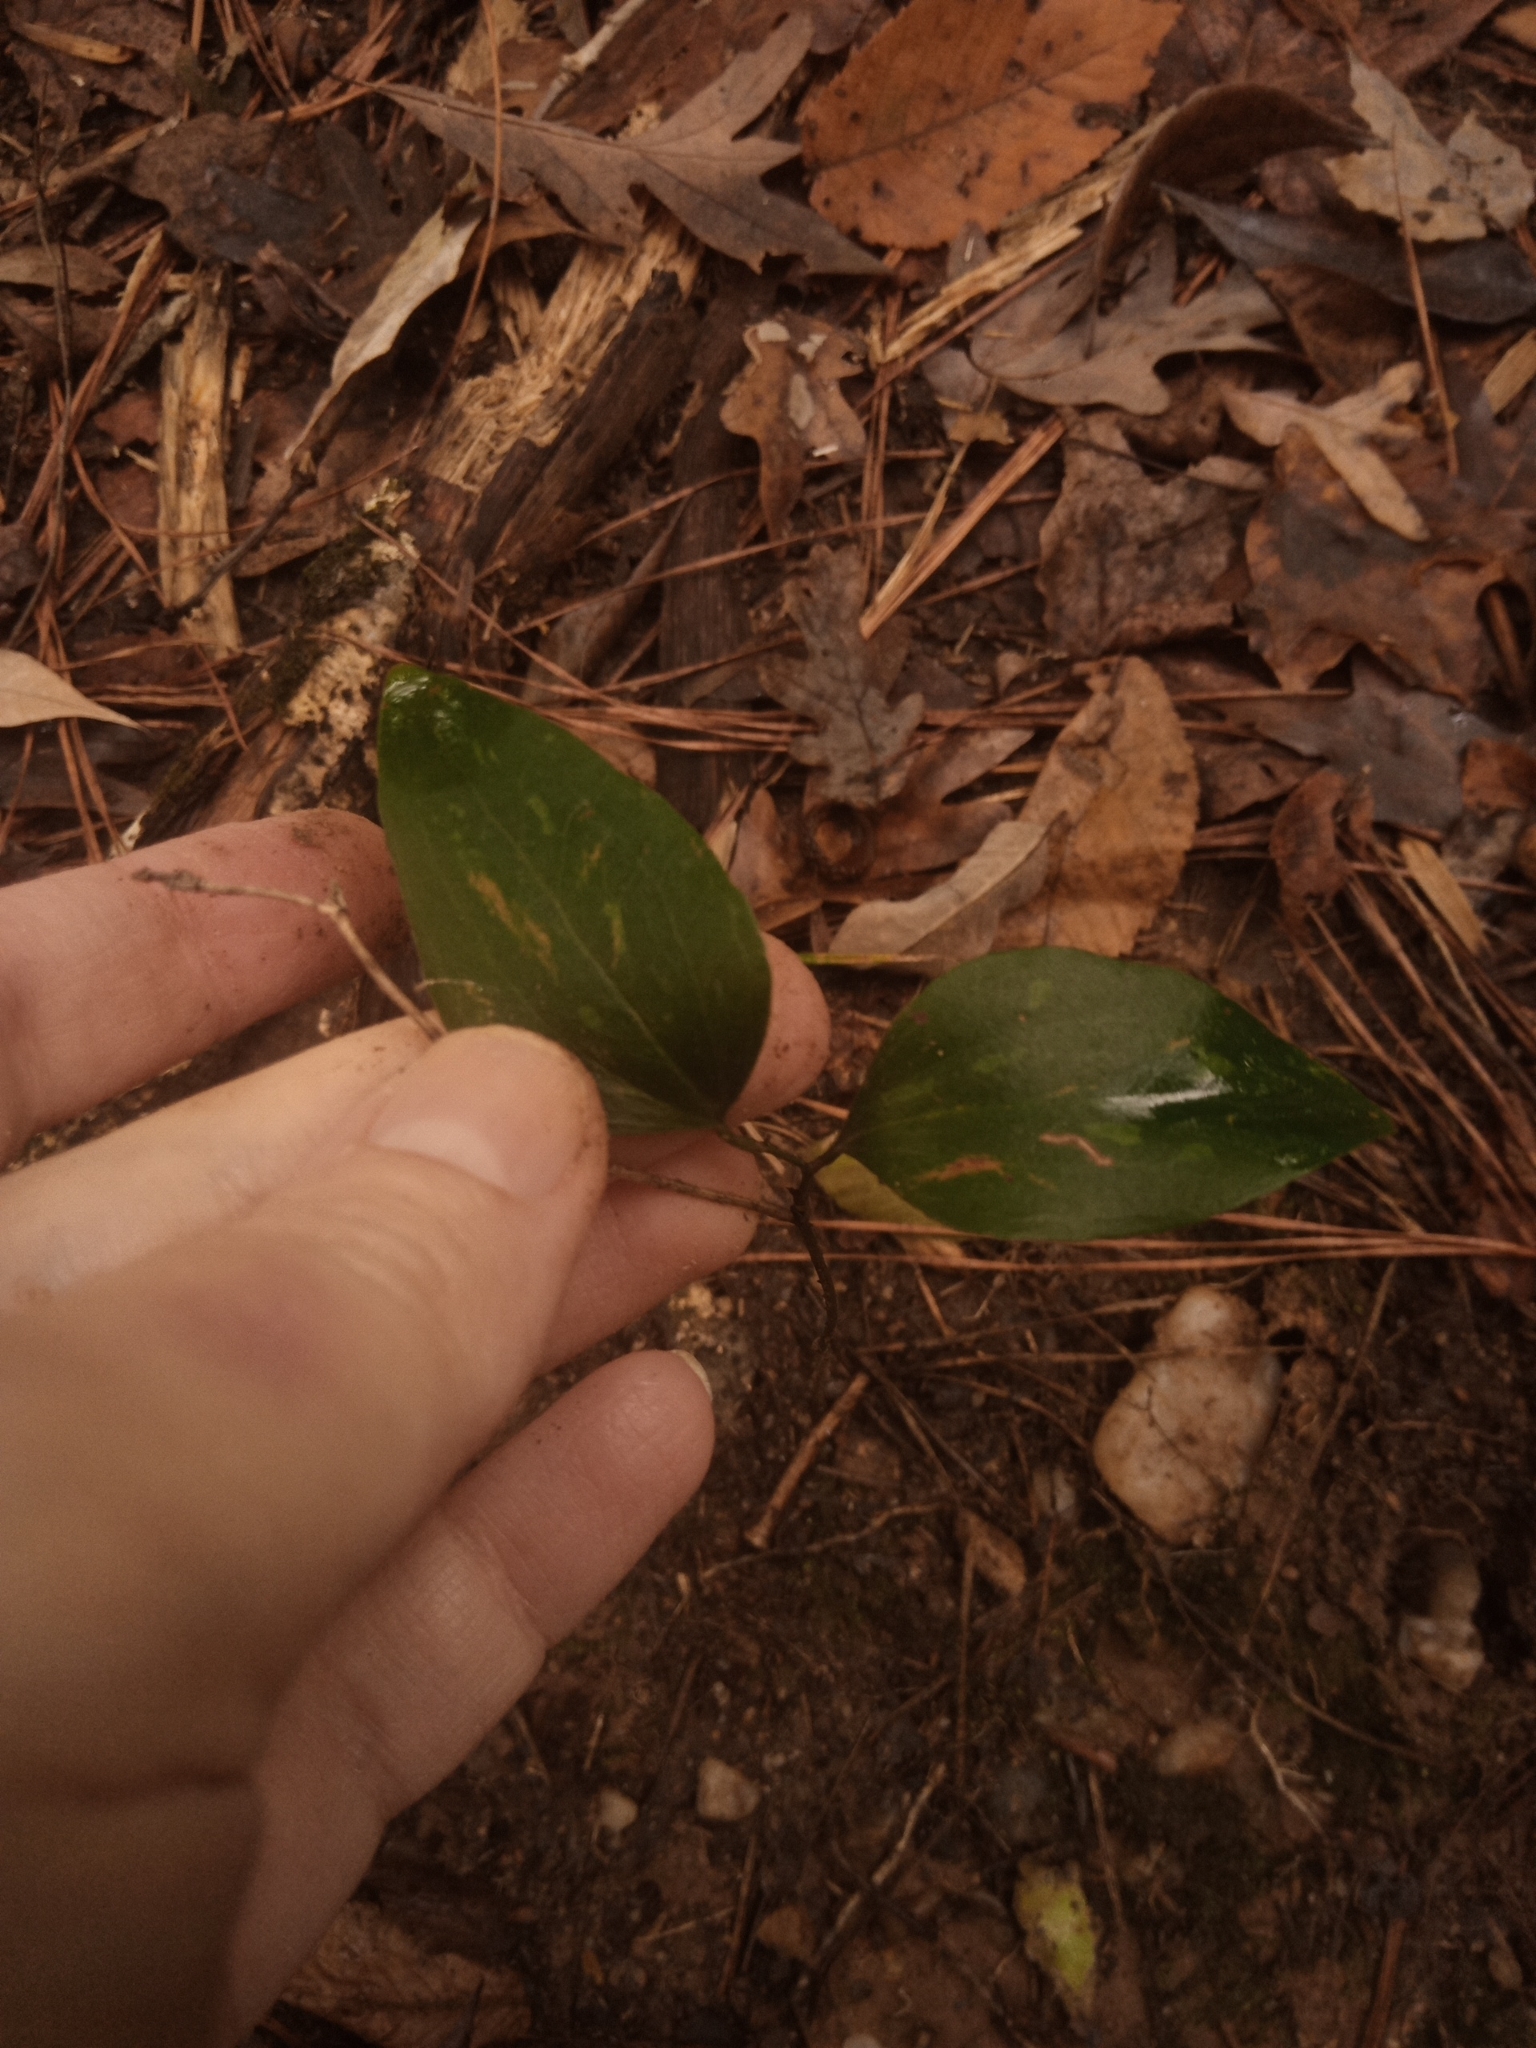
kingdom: Plantae
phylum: Tracheophyta
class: Liliopsida
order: Liliales
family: Smilacaceae
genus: Smilax
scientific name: Smilax glauca
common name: Cat greenbrier
